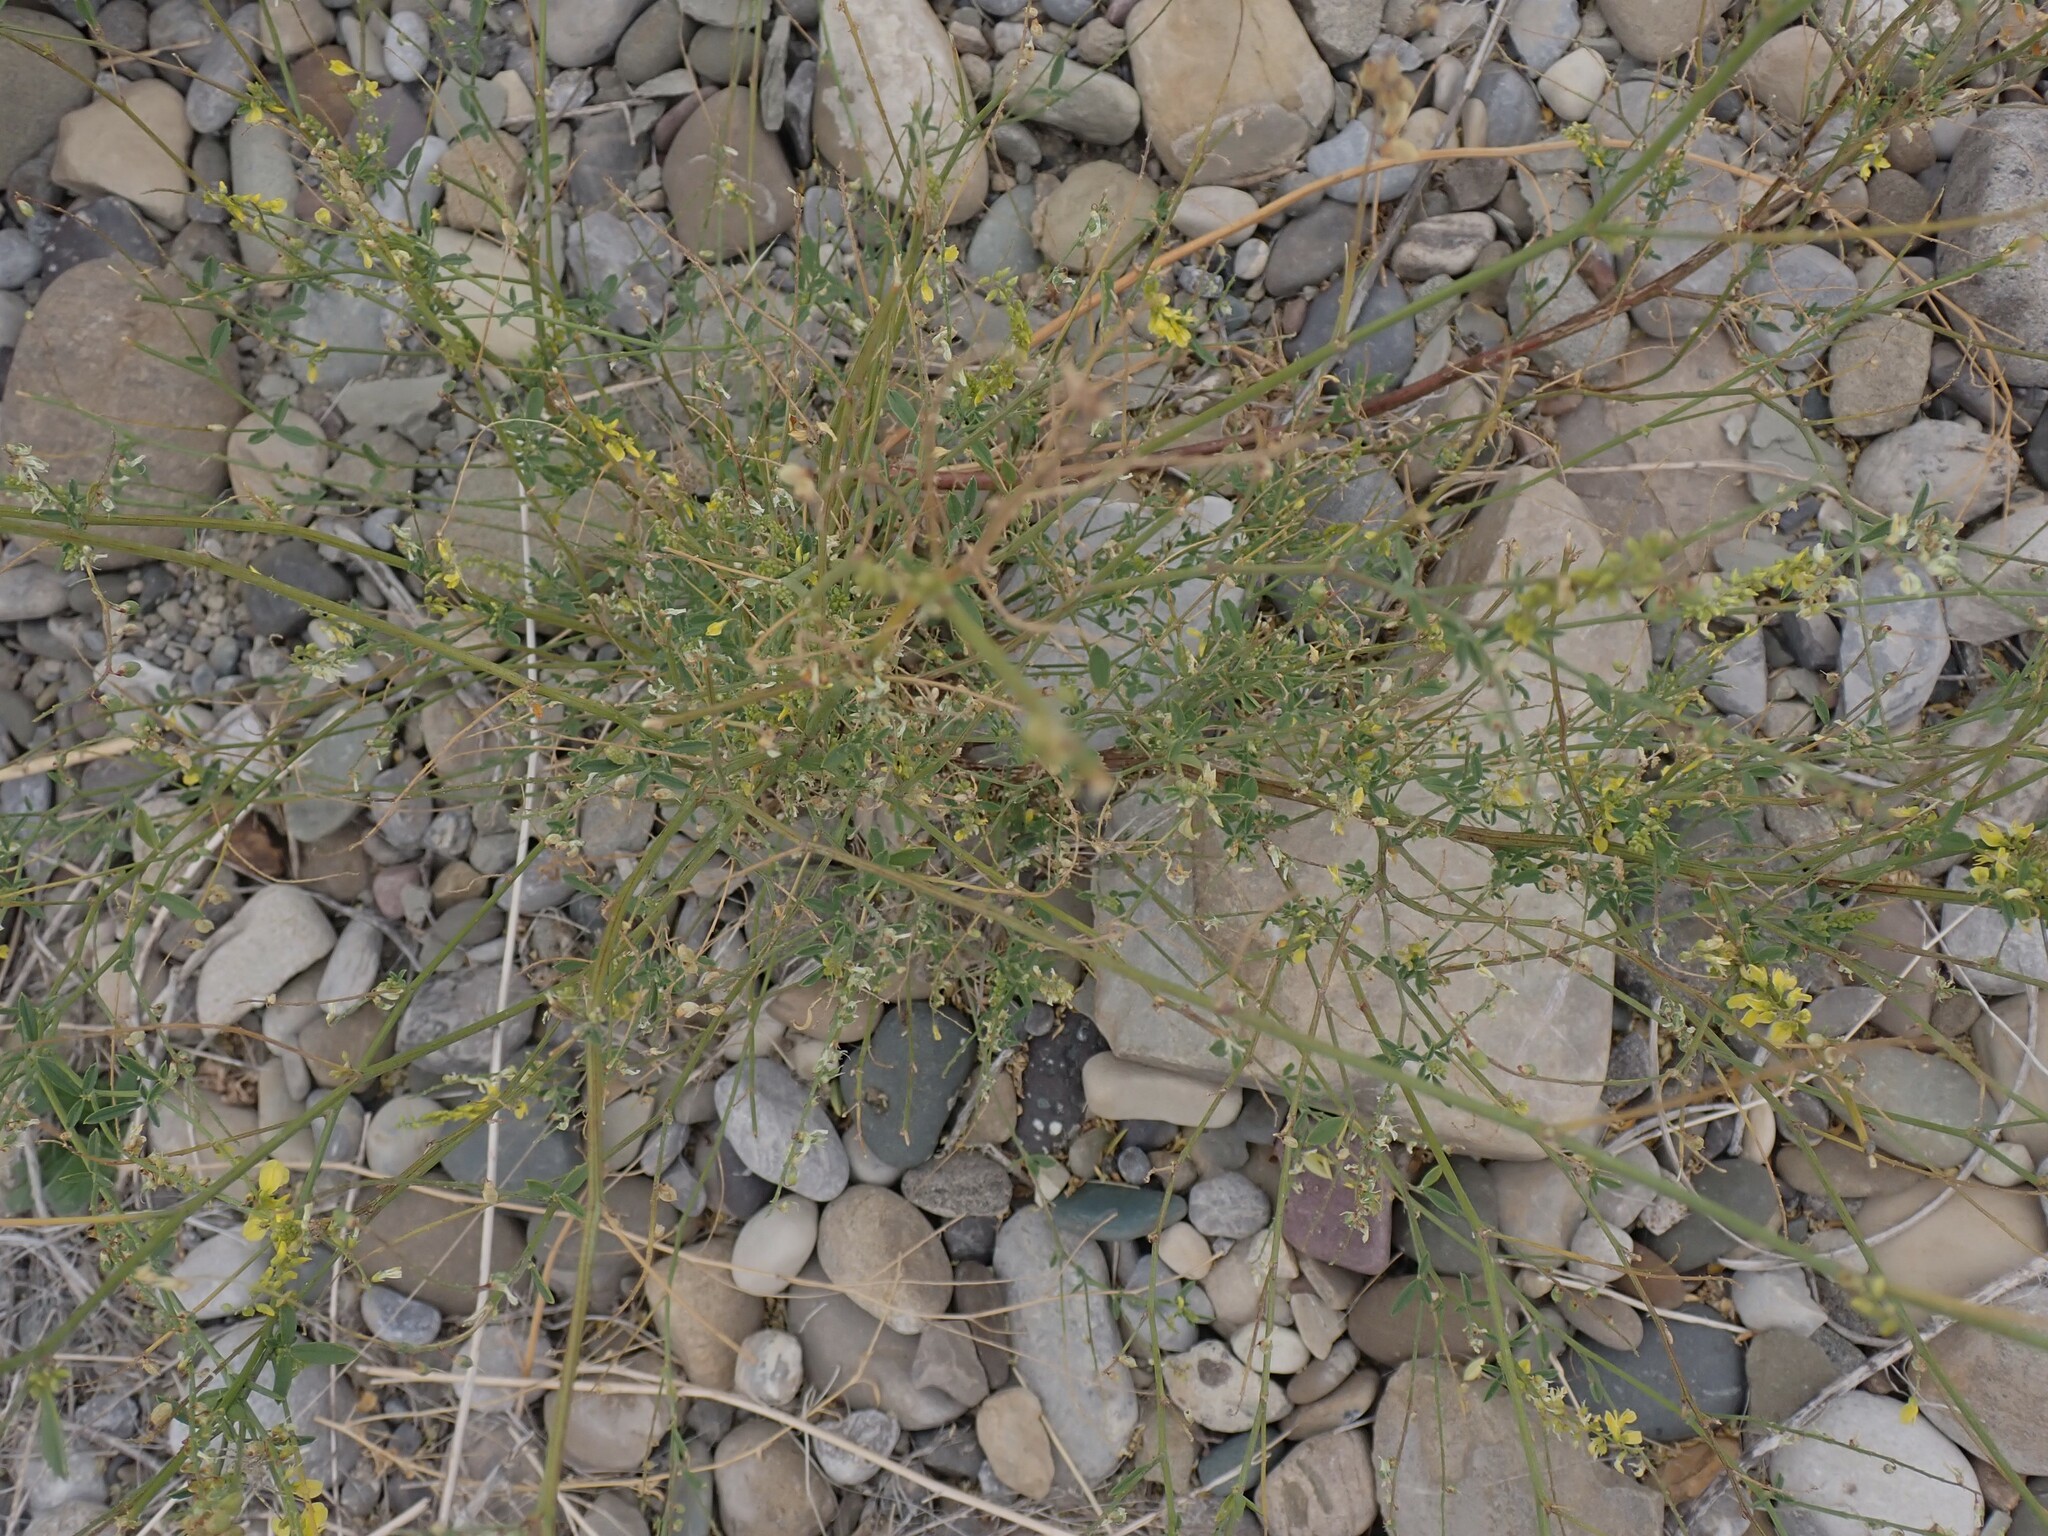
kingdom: Plantae
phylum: Tracheophyta
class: Magnoliopsida
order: Fabales
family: Fabaceae
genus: Melilotus
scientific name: Melilotus officinalis
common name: Sweetclover
